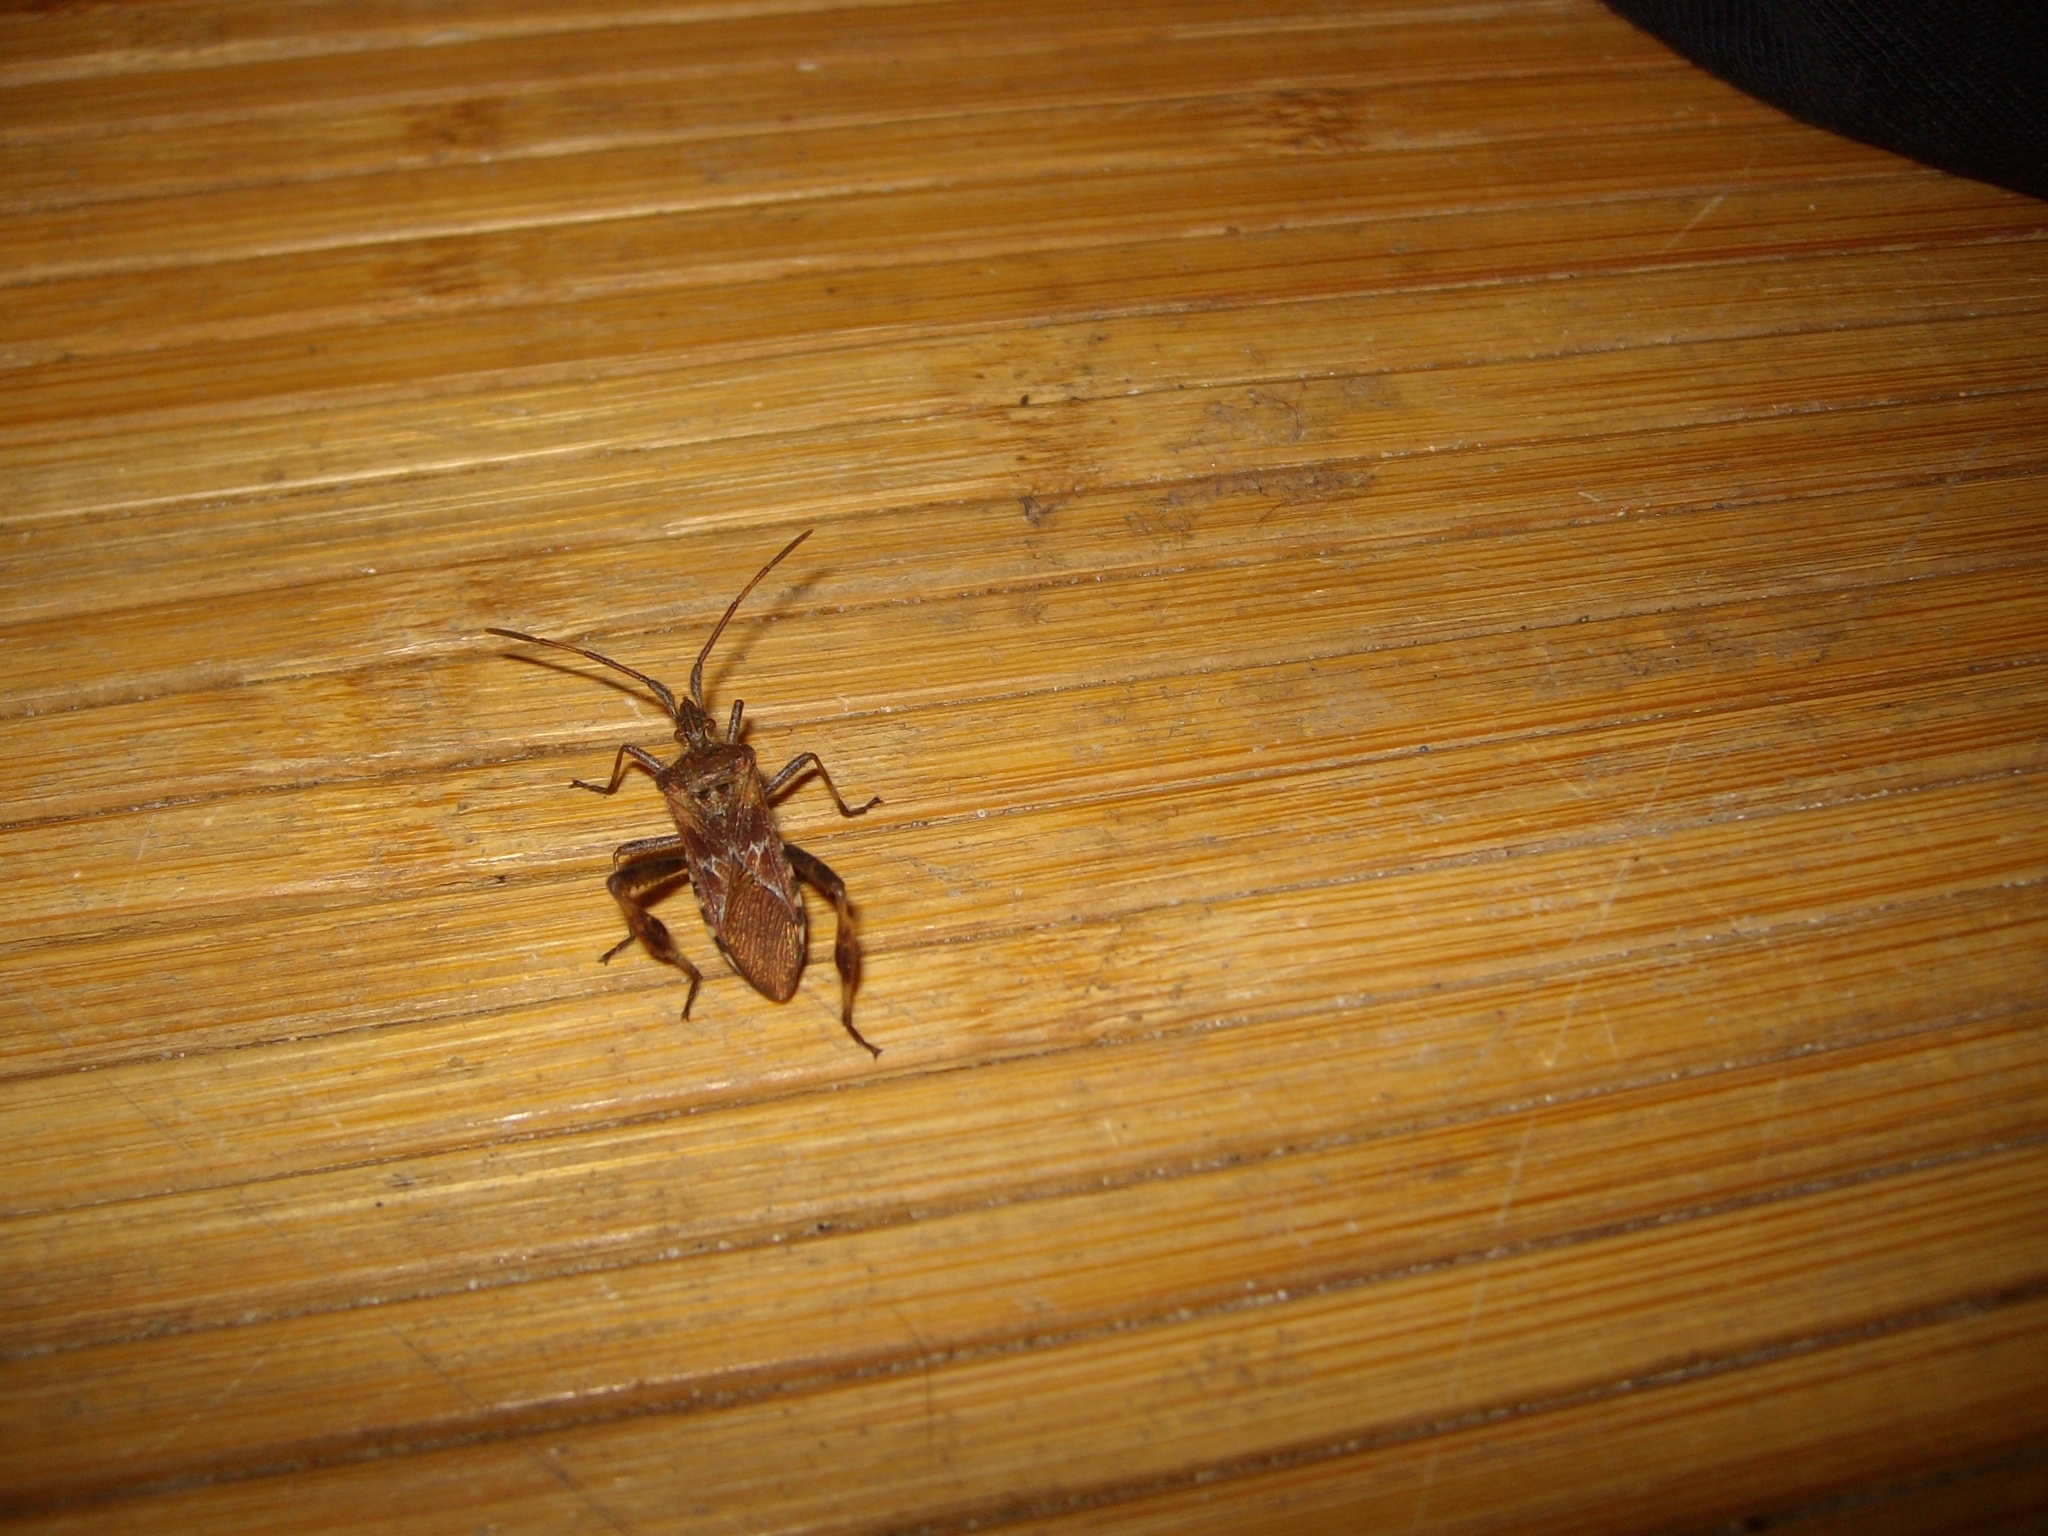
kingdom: Animalia
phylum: Arthropoda
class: Insecta
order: Hemiptera
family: Coreidae
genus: Leptoglossus
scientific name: Leptoglossus occidentalis
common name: Western conifer-seed bug
